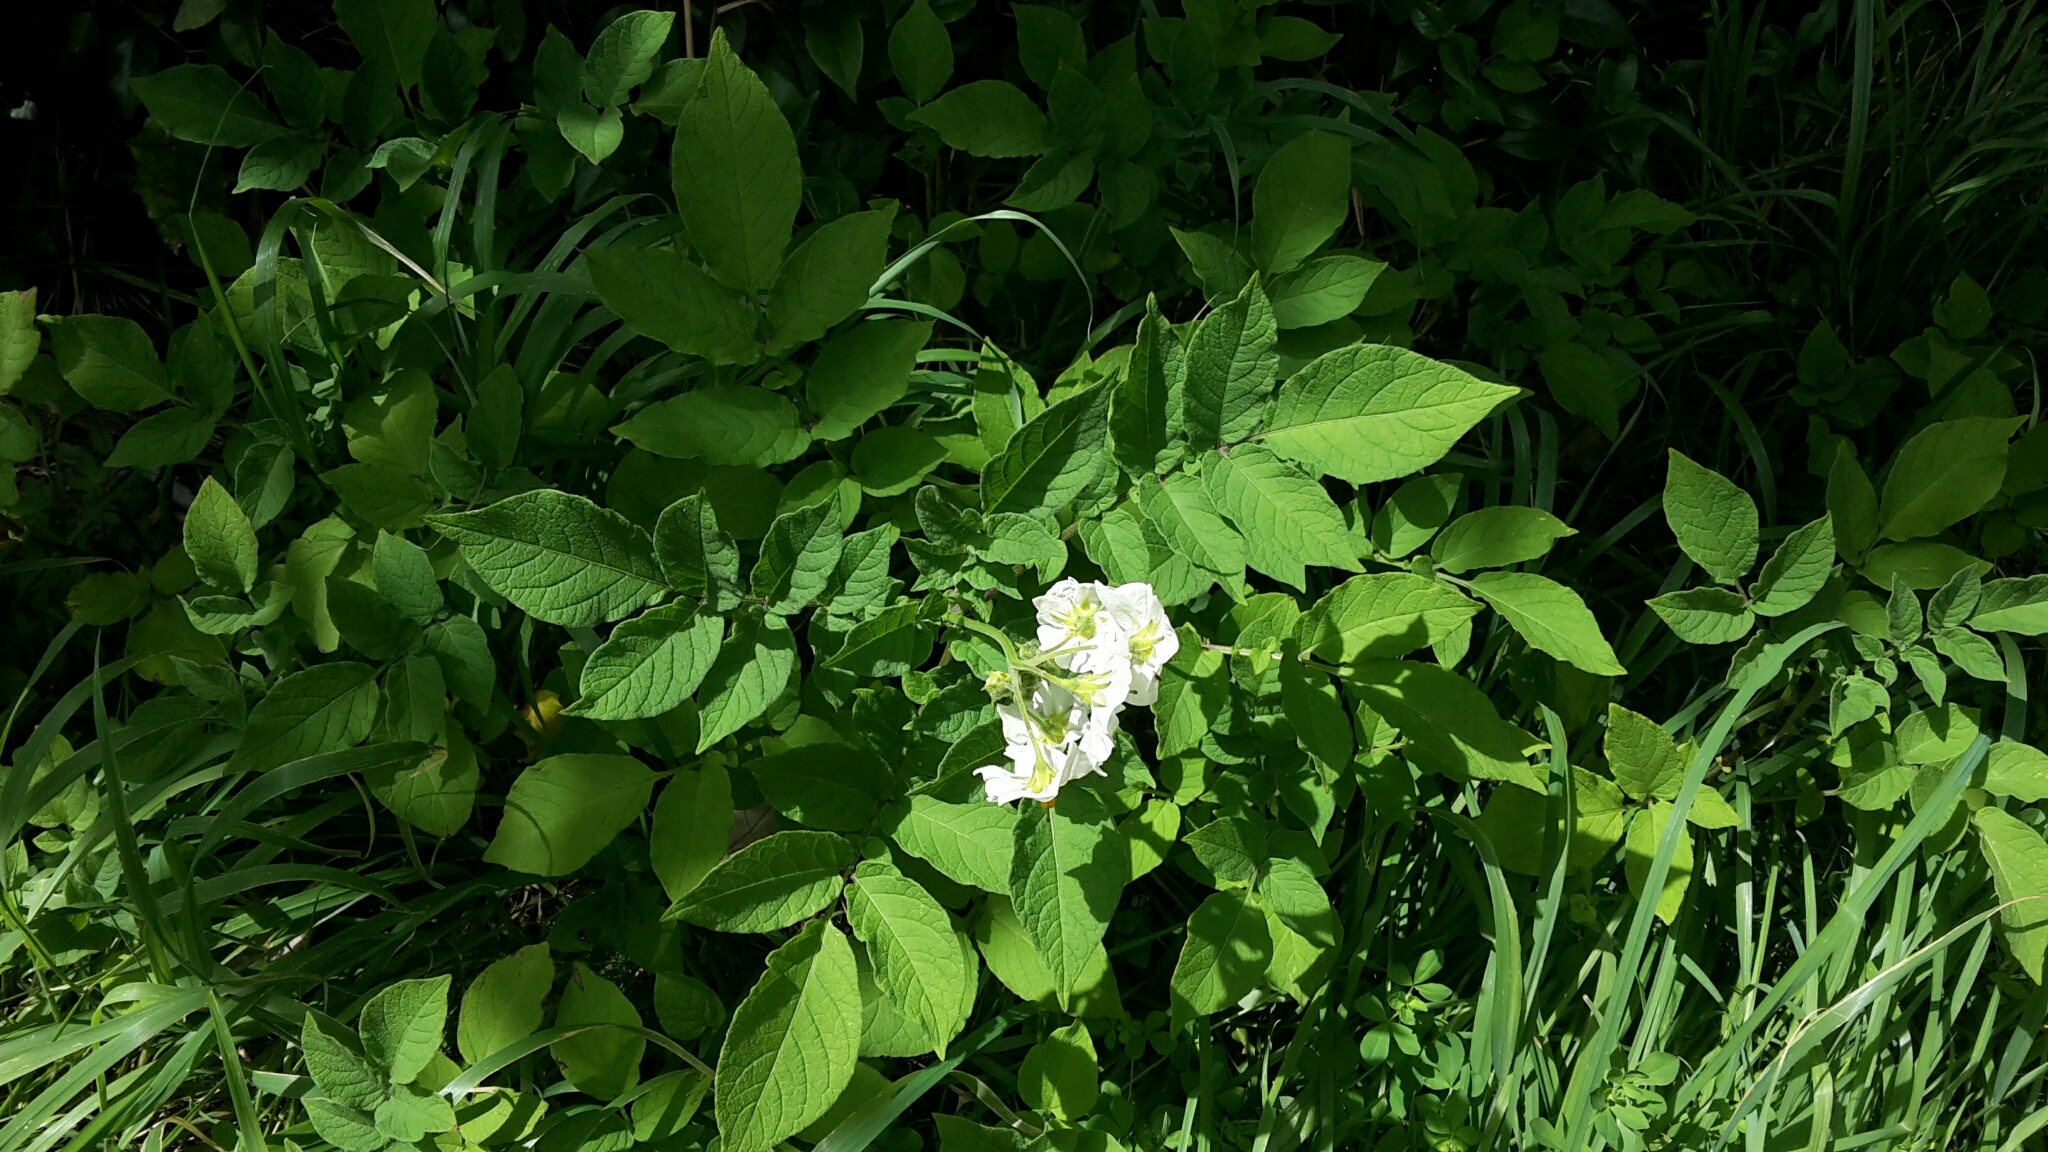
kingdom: Plantae
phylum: Tracheophyta
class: Magnoliopsida
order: Solanales
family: Solanaceae
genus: Solanum
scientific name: Solanum tuberosum
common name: Potato
